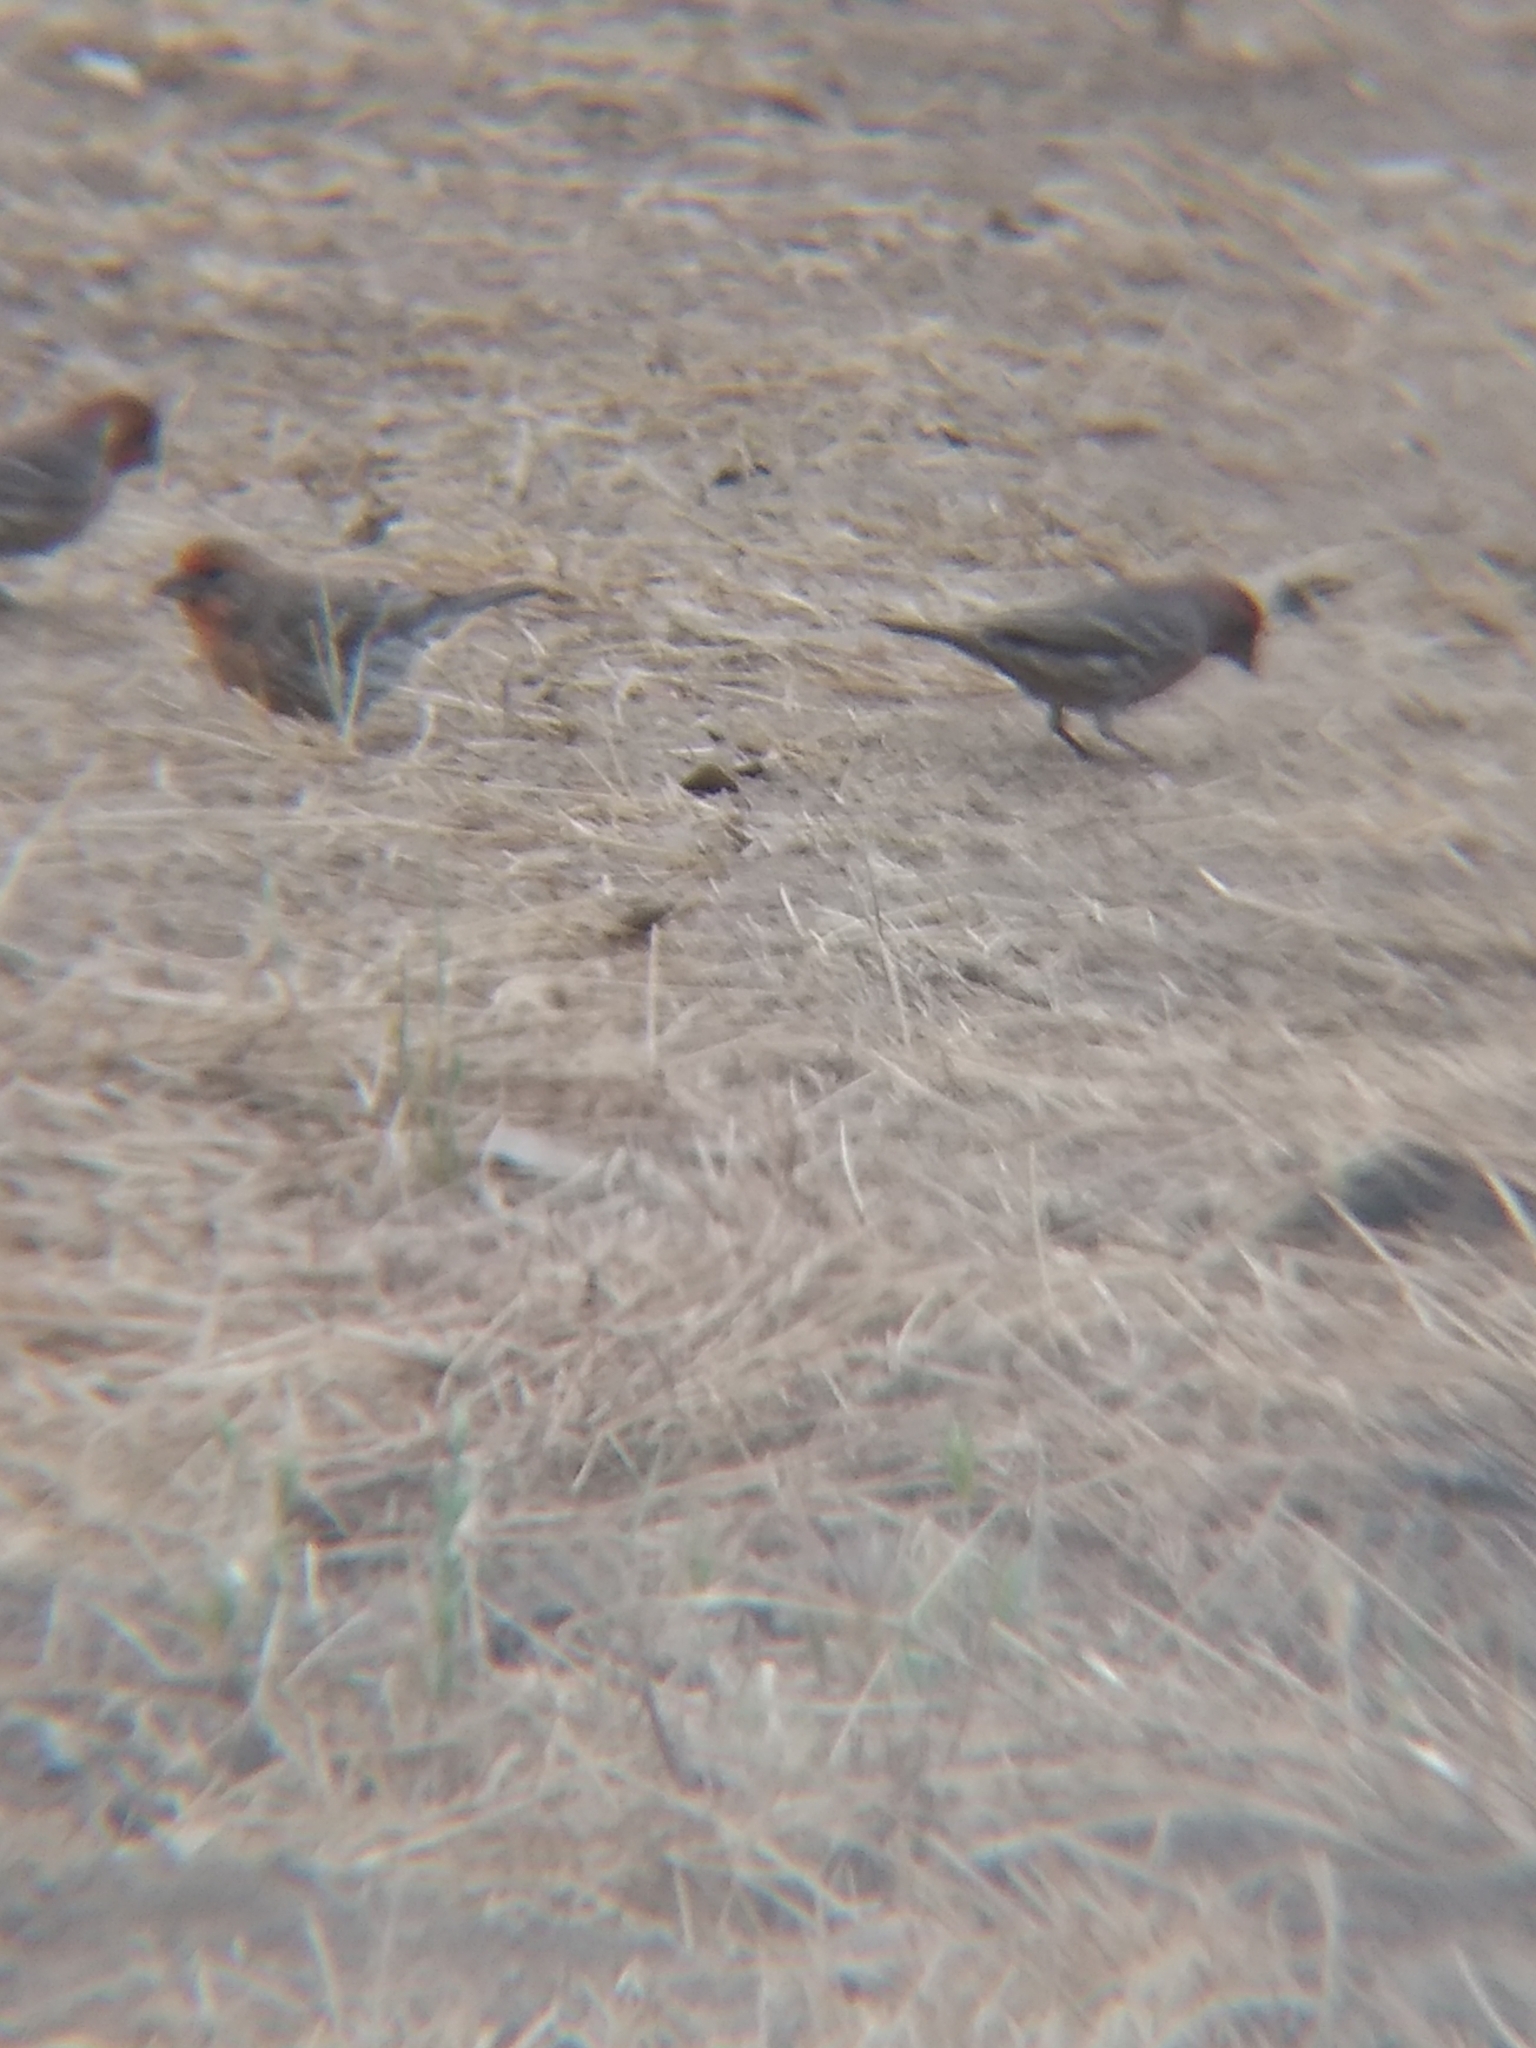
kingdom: Animalia
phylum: Chordata
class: Aves
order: Passeriformes
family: Fringillidae
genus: Haemorhous
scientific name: Haemorhous mexicanus
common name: House finch
